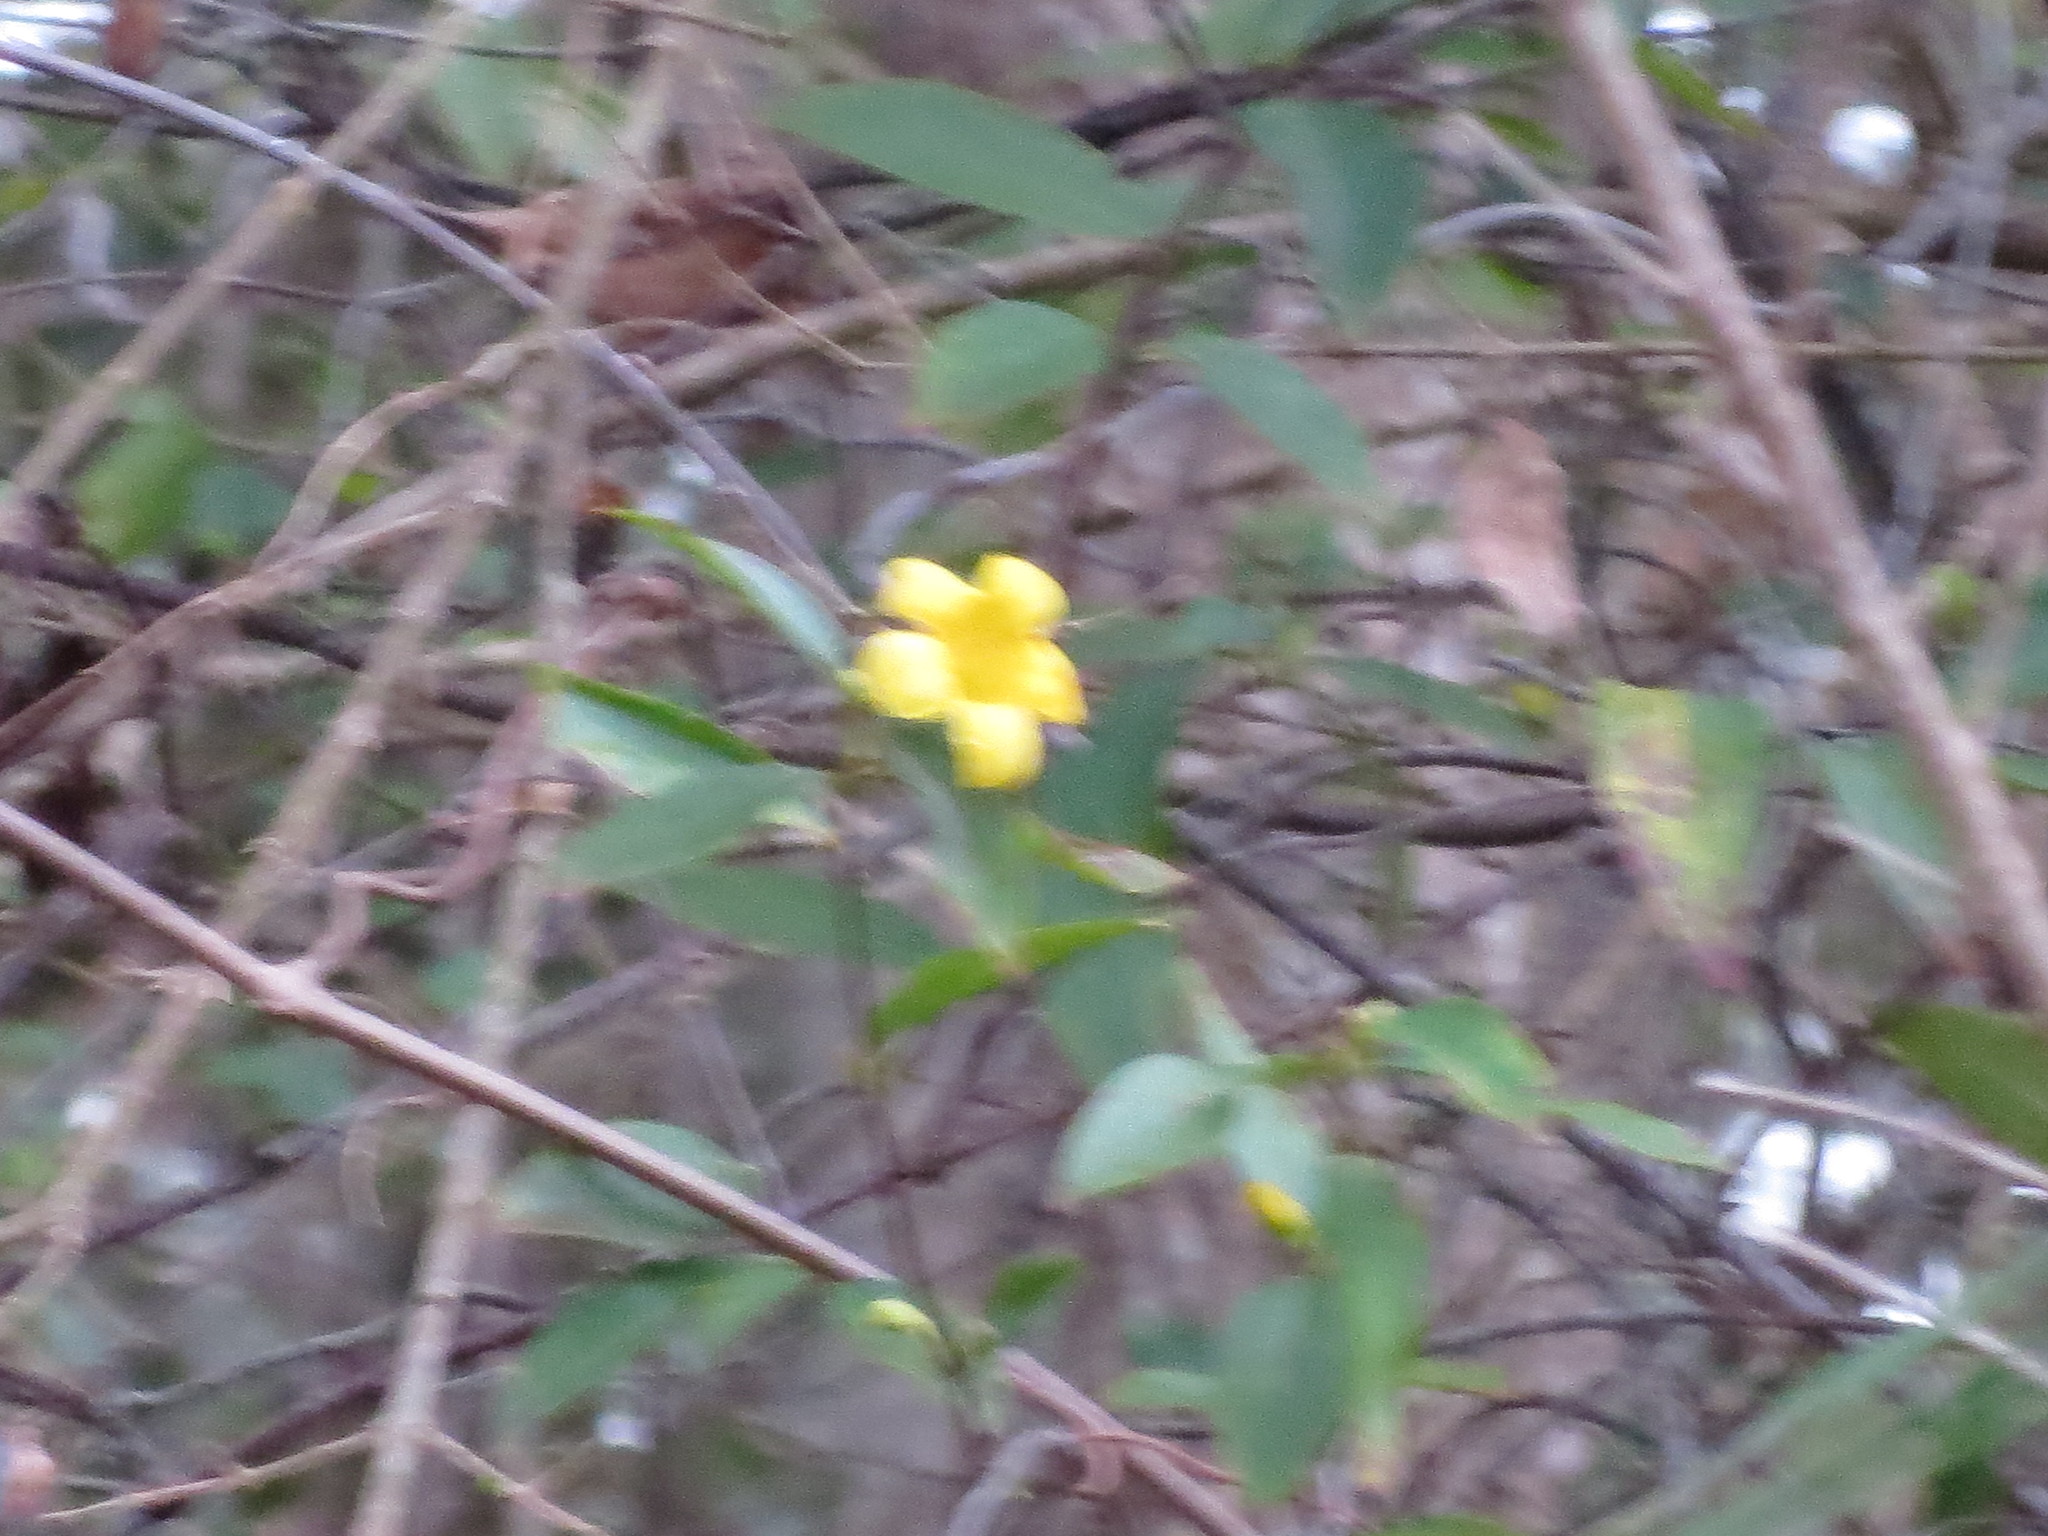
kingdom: Plantae
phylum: Tracheophyta
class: Magnoliopsida
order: Gentianales
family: Gelsemiaceae
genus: Gelsemium
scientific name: Gelsemium sempervirens
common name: Carolina-jasmine
